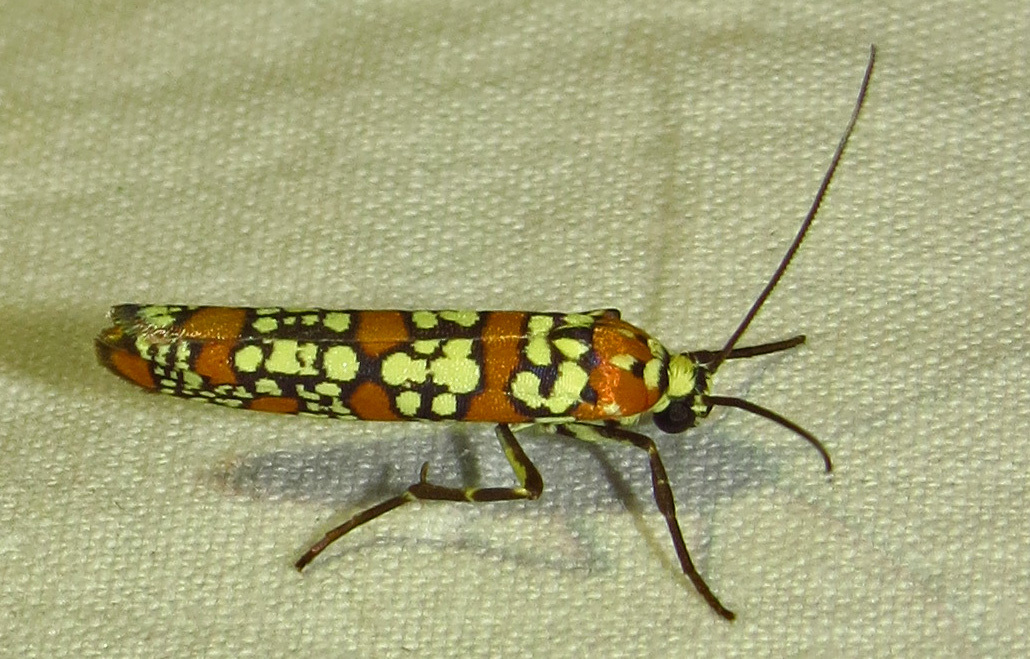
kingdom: Animalia
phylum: Arthropoda
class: Insecta
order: Lepidoptera
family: Attevidae
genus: Atteva
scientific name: Atteva punctella
